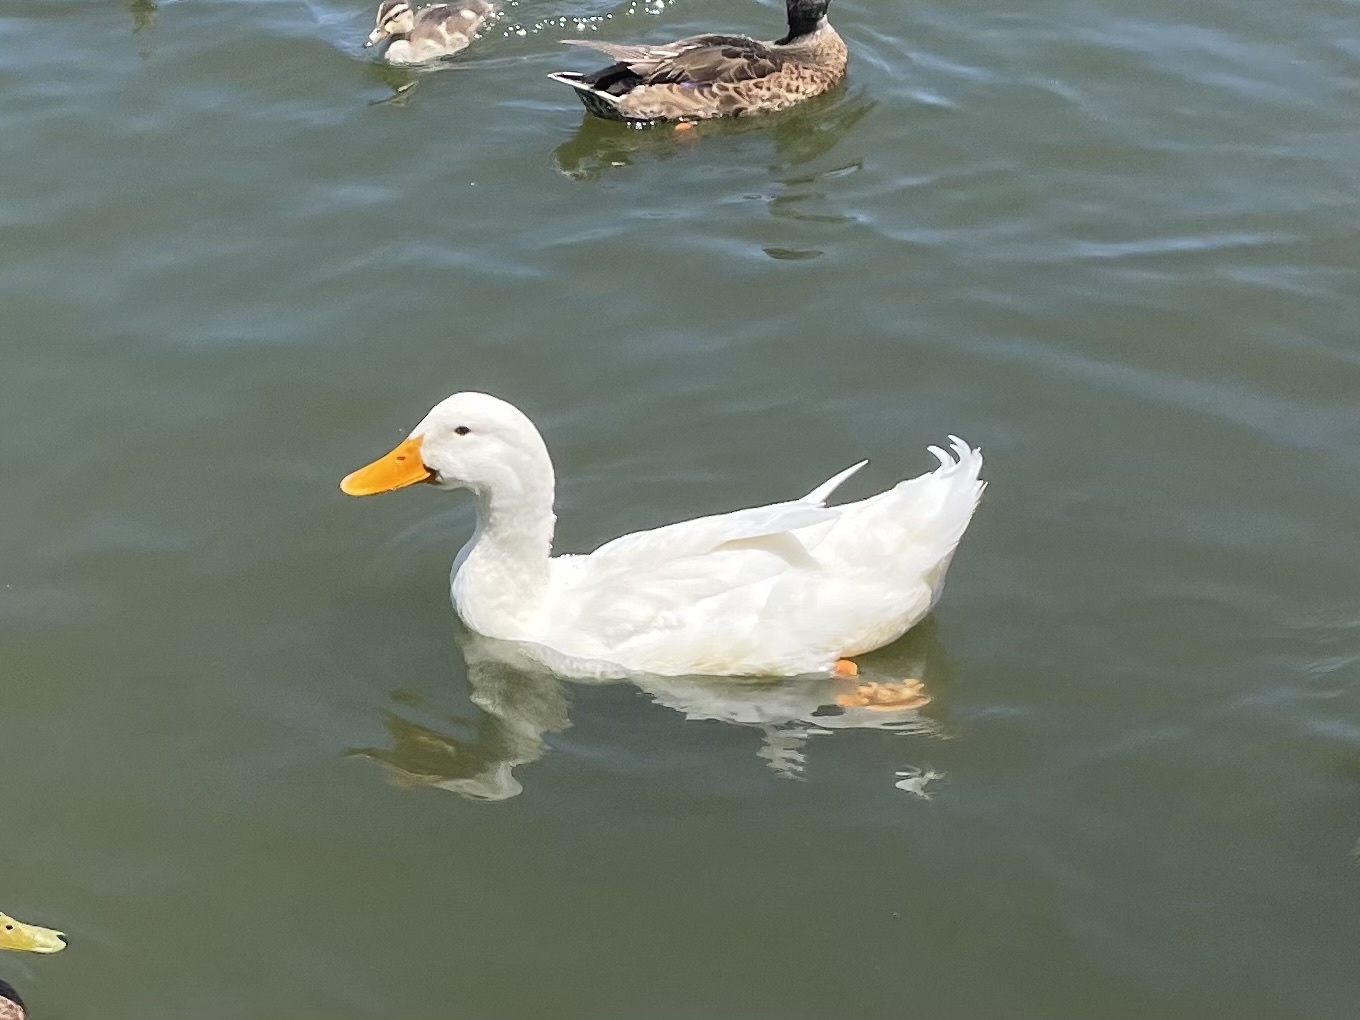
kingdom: Animalia
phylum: Chordata
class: Aves
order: Anseriformes
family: Anatidae
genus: Anas
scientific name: Anas platyrhynchos
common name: Mallard
